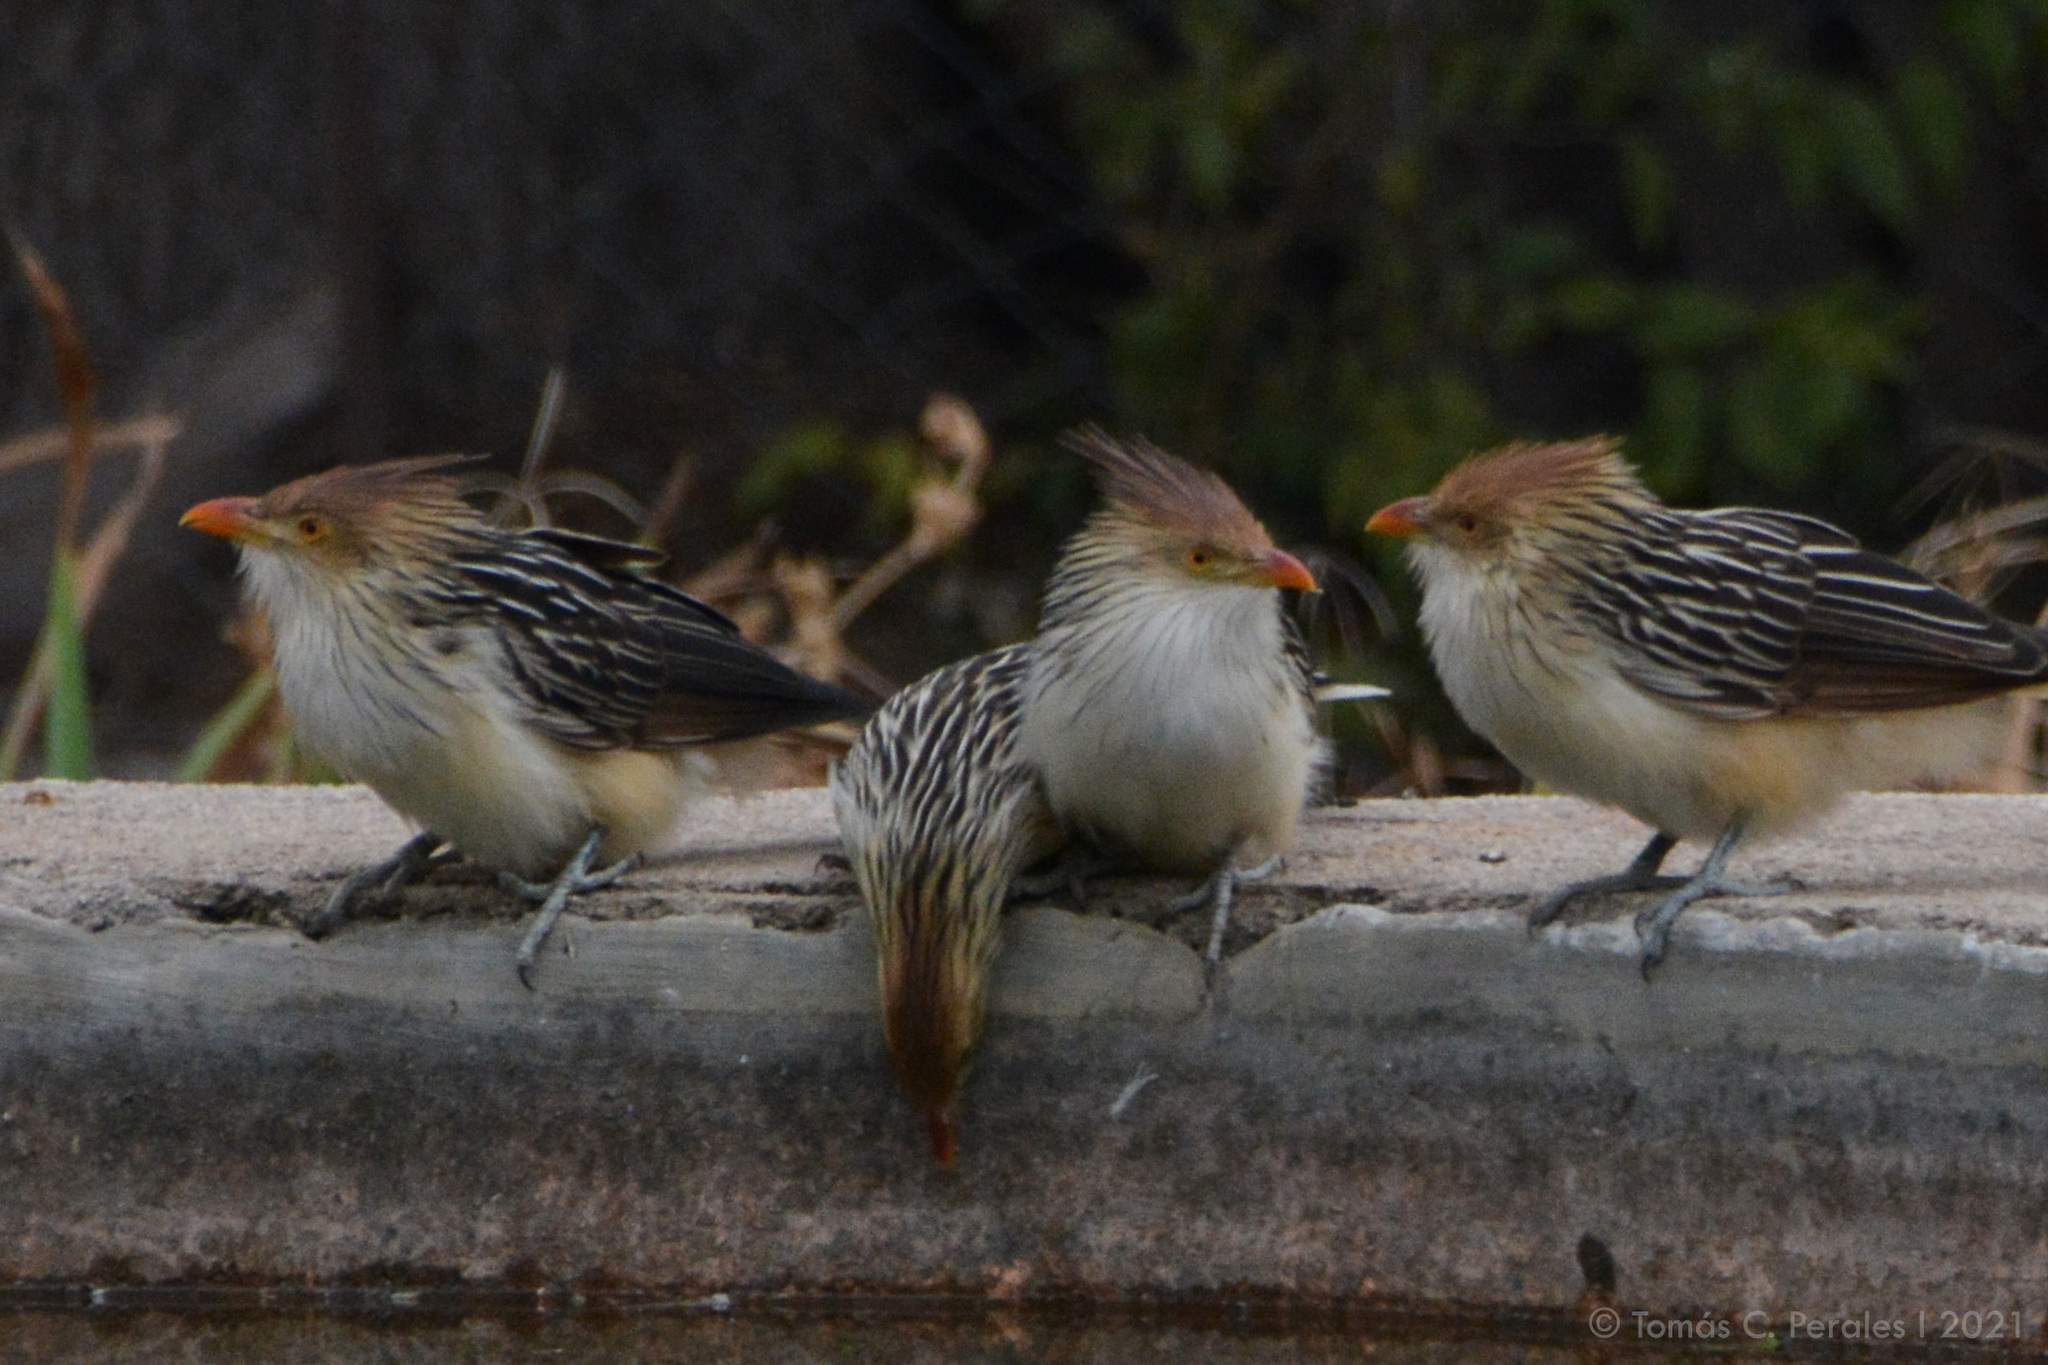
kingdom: Animalia
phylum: Chordata
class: Aves
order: Cuculiformes
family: Cuculidae
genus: Guira
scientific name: Guira guira
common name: Guira cuckoo
